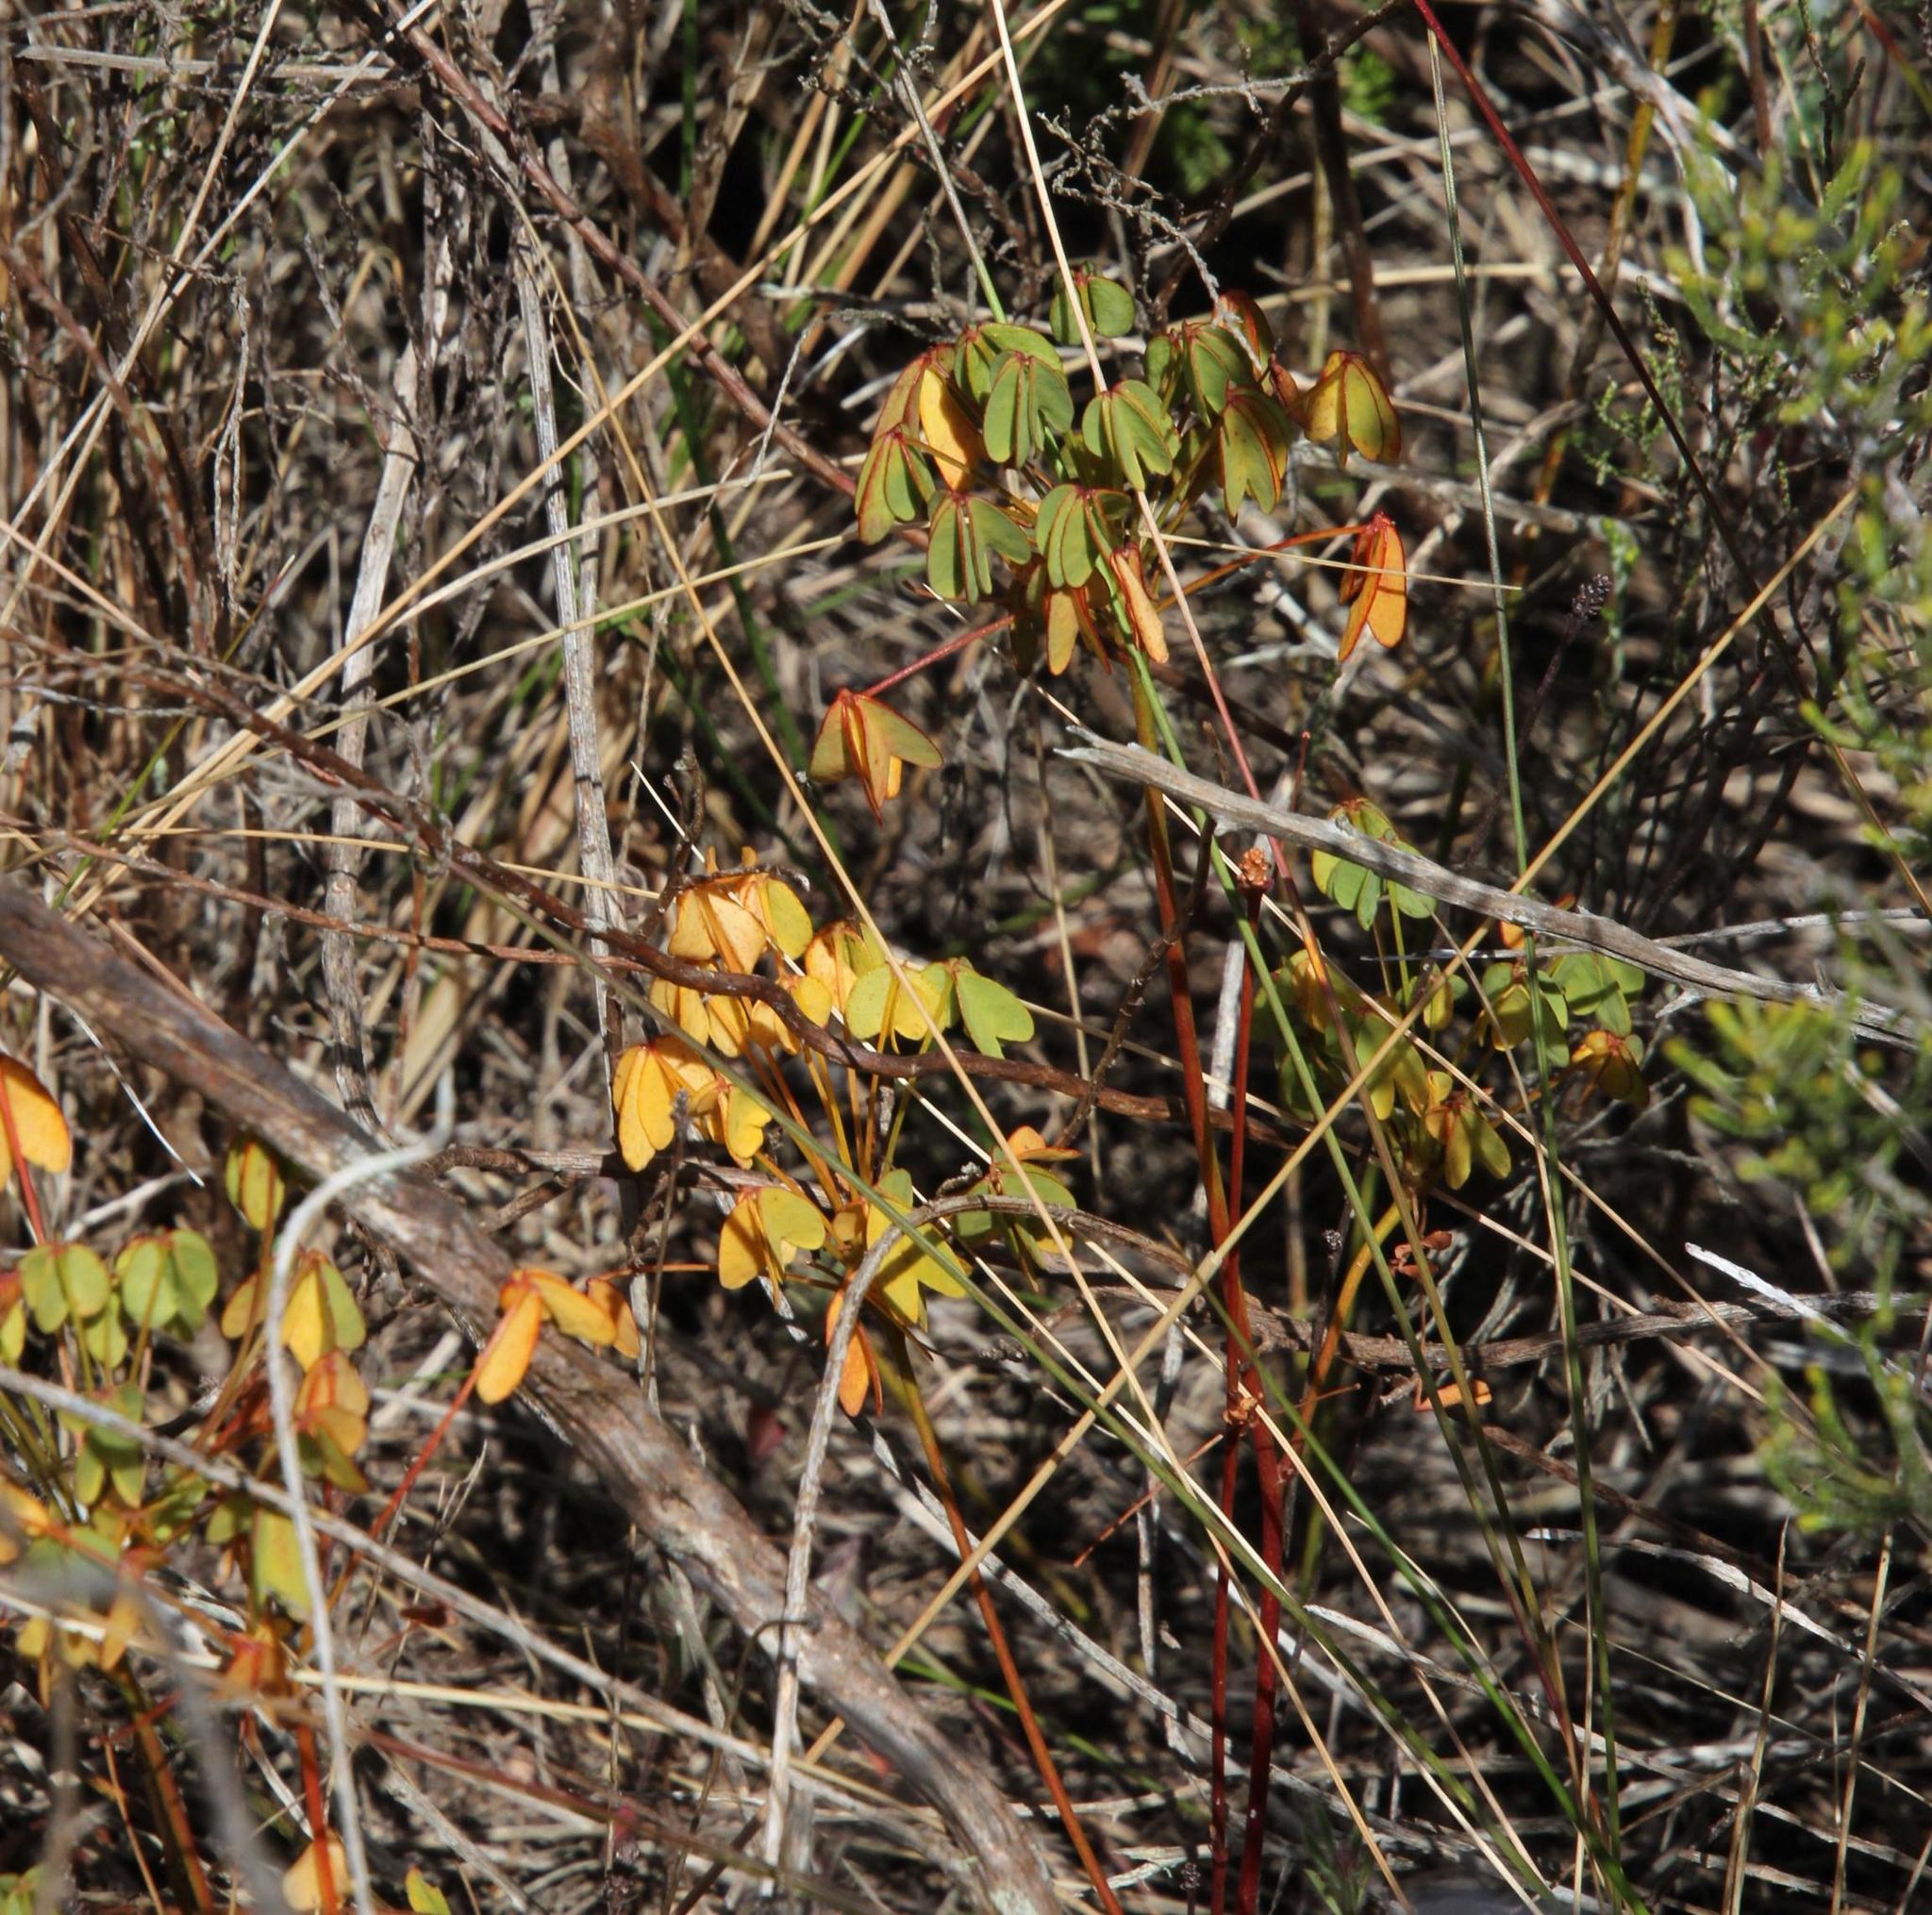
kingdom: Plantae
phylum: Tracheophyta
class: Magnoliopsida
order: Oxalidales
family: Oxalidaceae
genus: Oxalis
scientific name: Oxalis heterophylla
